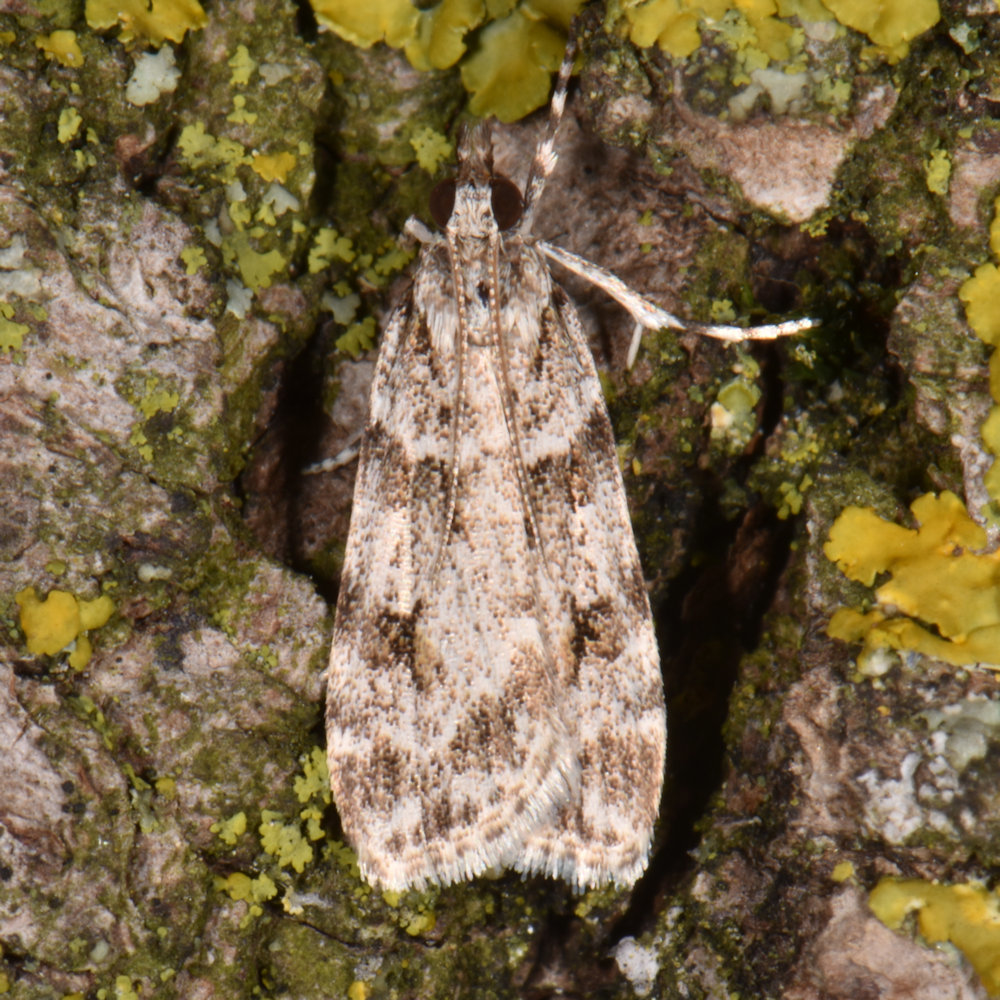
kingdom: Animalia
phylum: Arthropoda
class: Insecta
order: Lepidoptera
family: Crambidae
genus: Scoparia
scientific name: Scoparia biplagialis
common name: Double-striped scoparia moth
